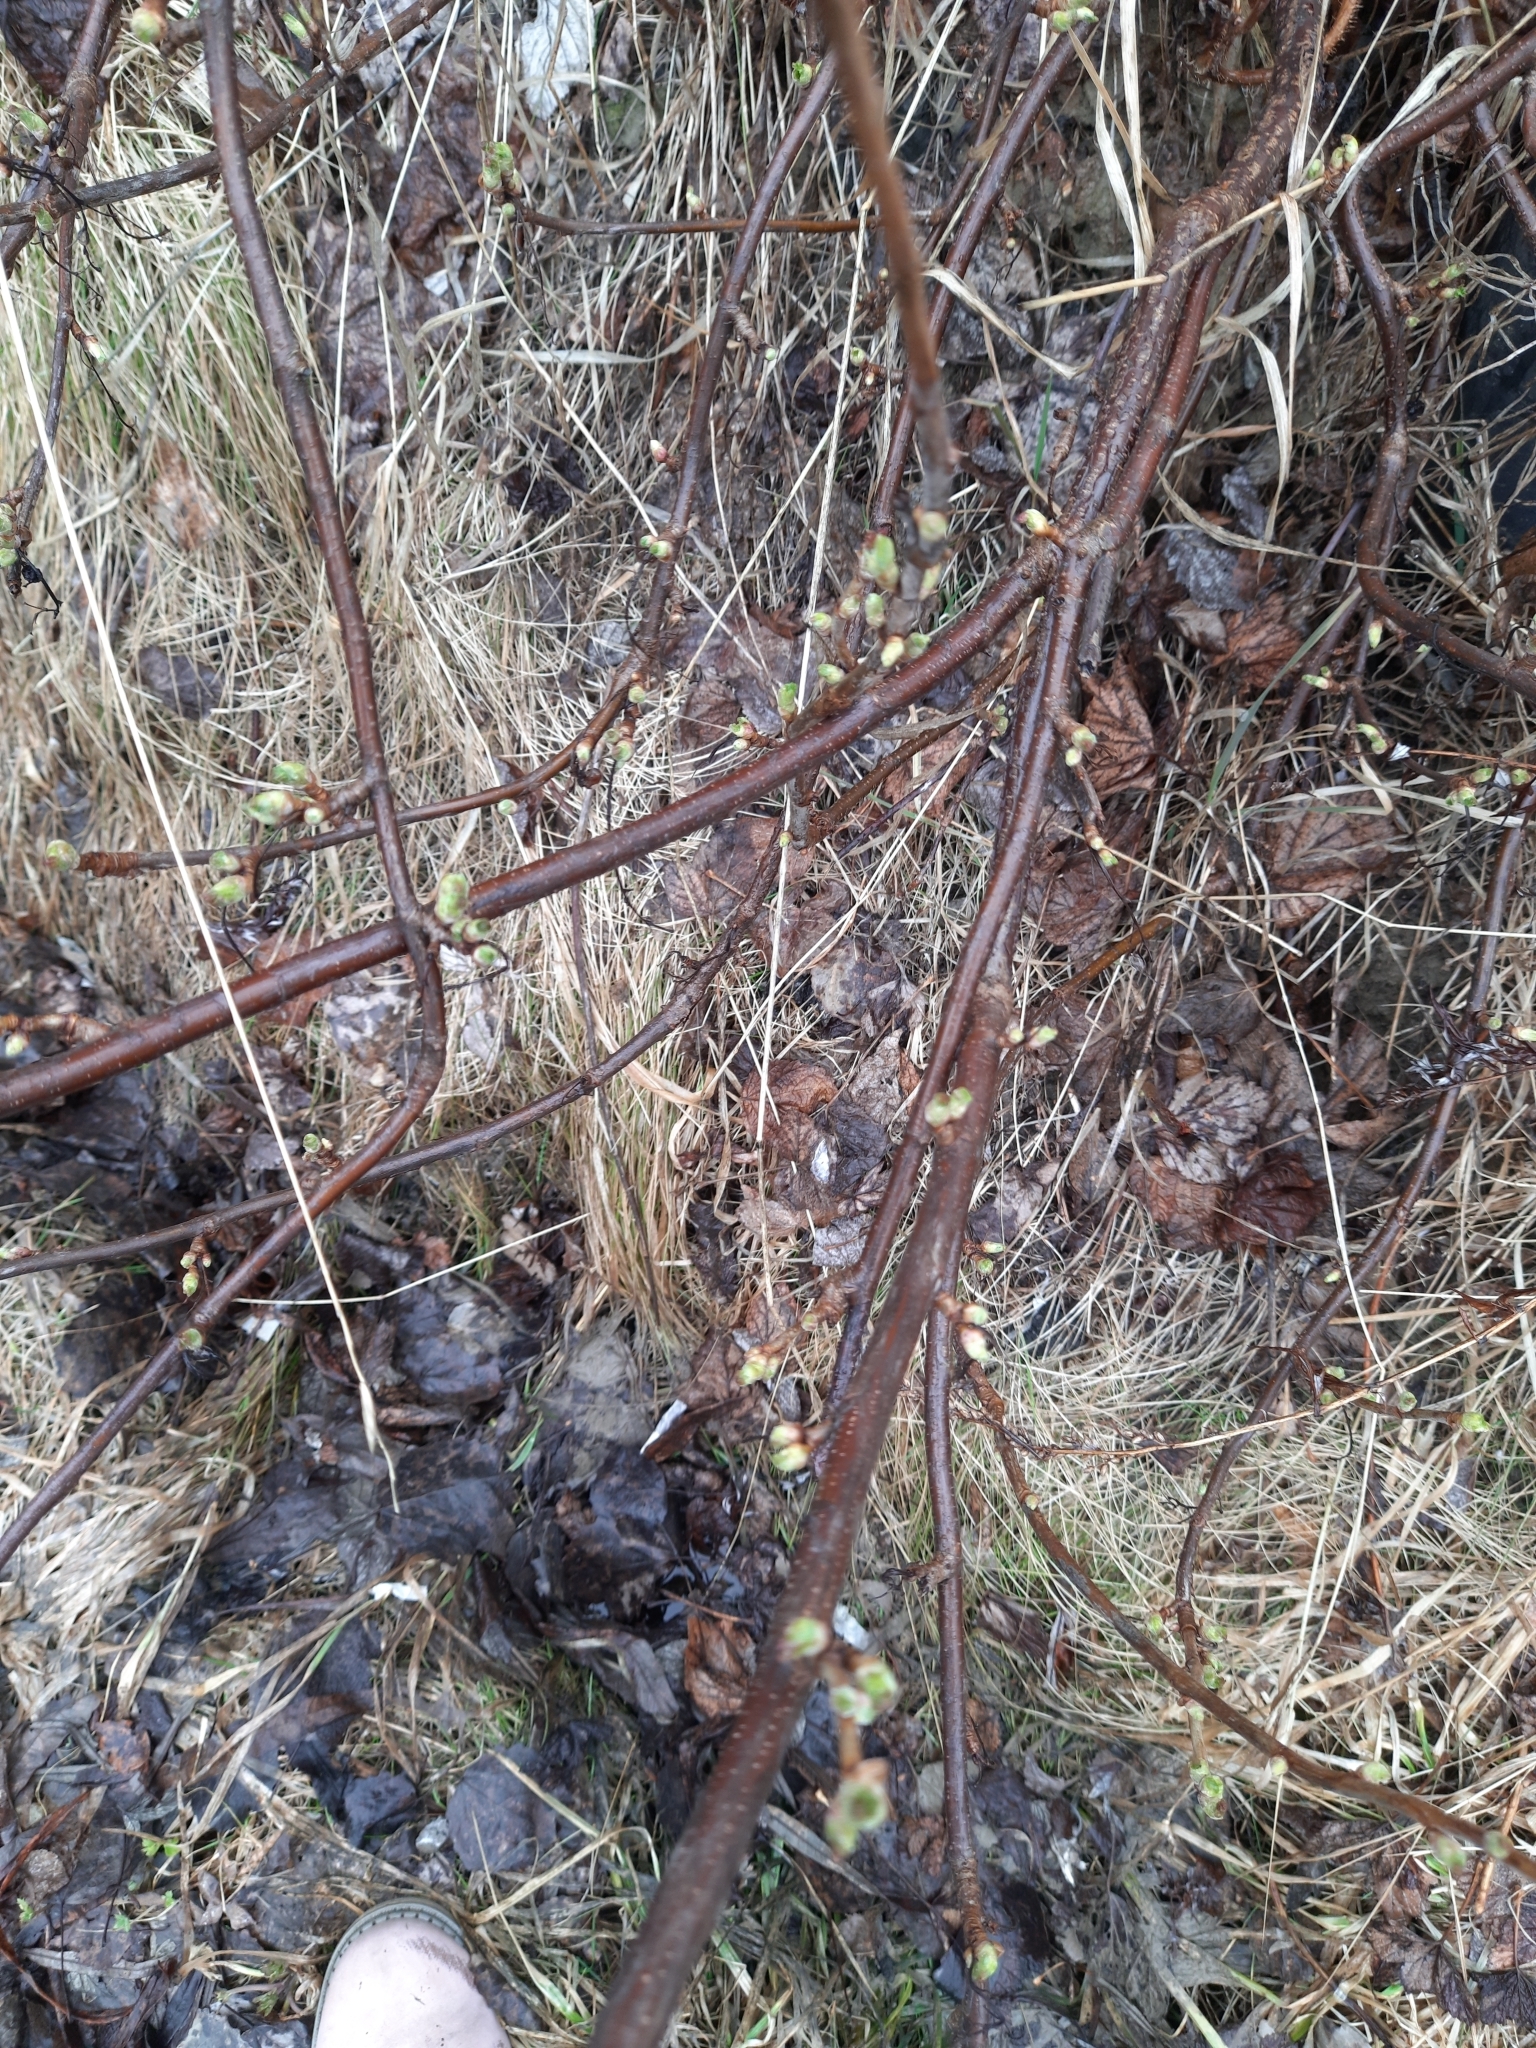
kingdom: Plantae
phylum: Tracheophyta
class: Magnoliopsida
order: Saxifragales
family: Grossulariaceae
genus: Ribes
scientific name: Ribes nigrum
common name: Black currant
